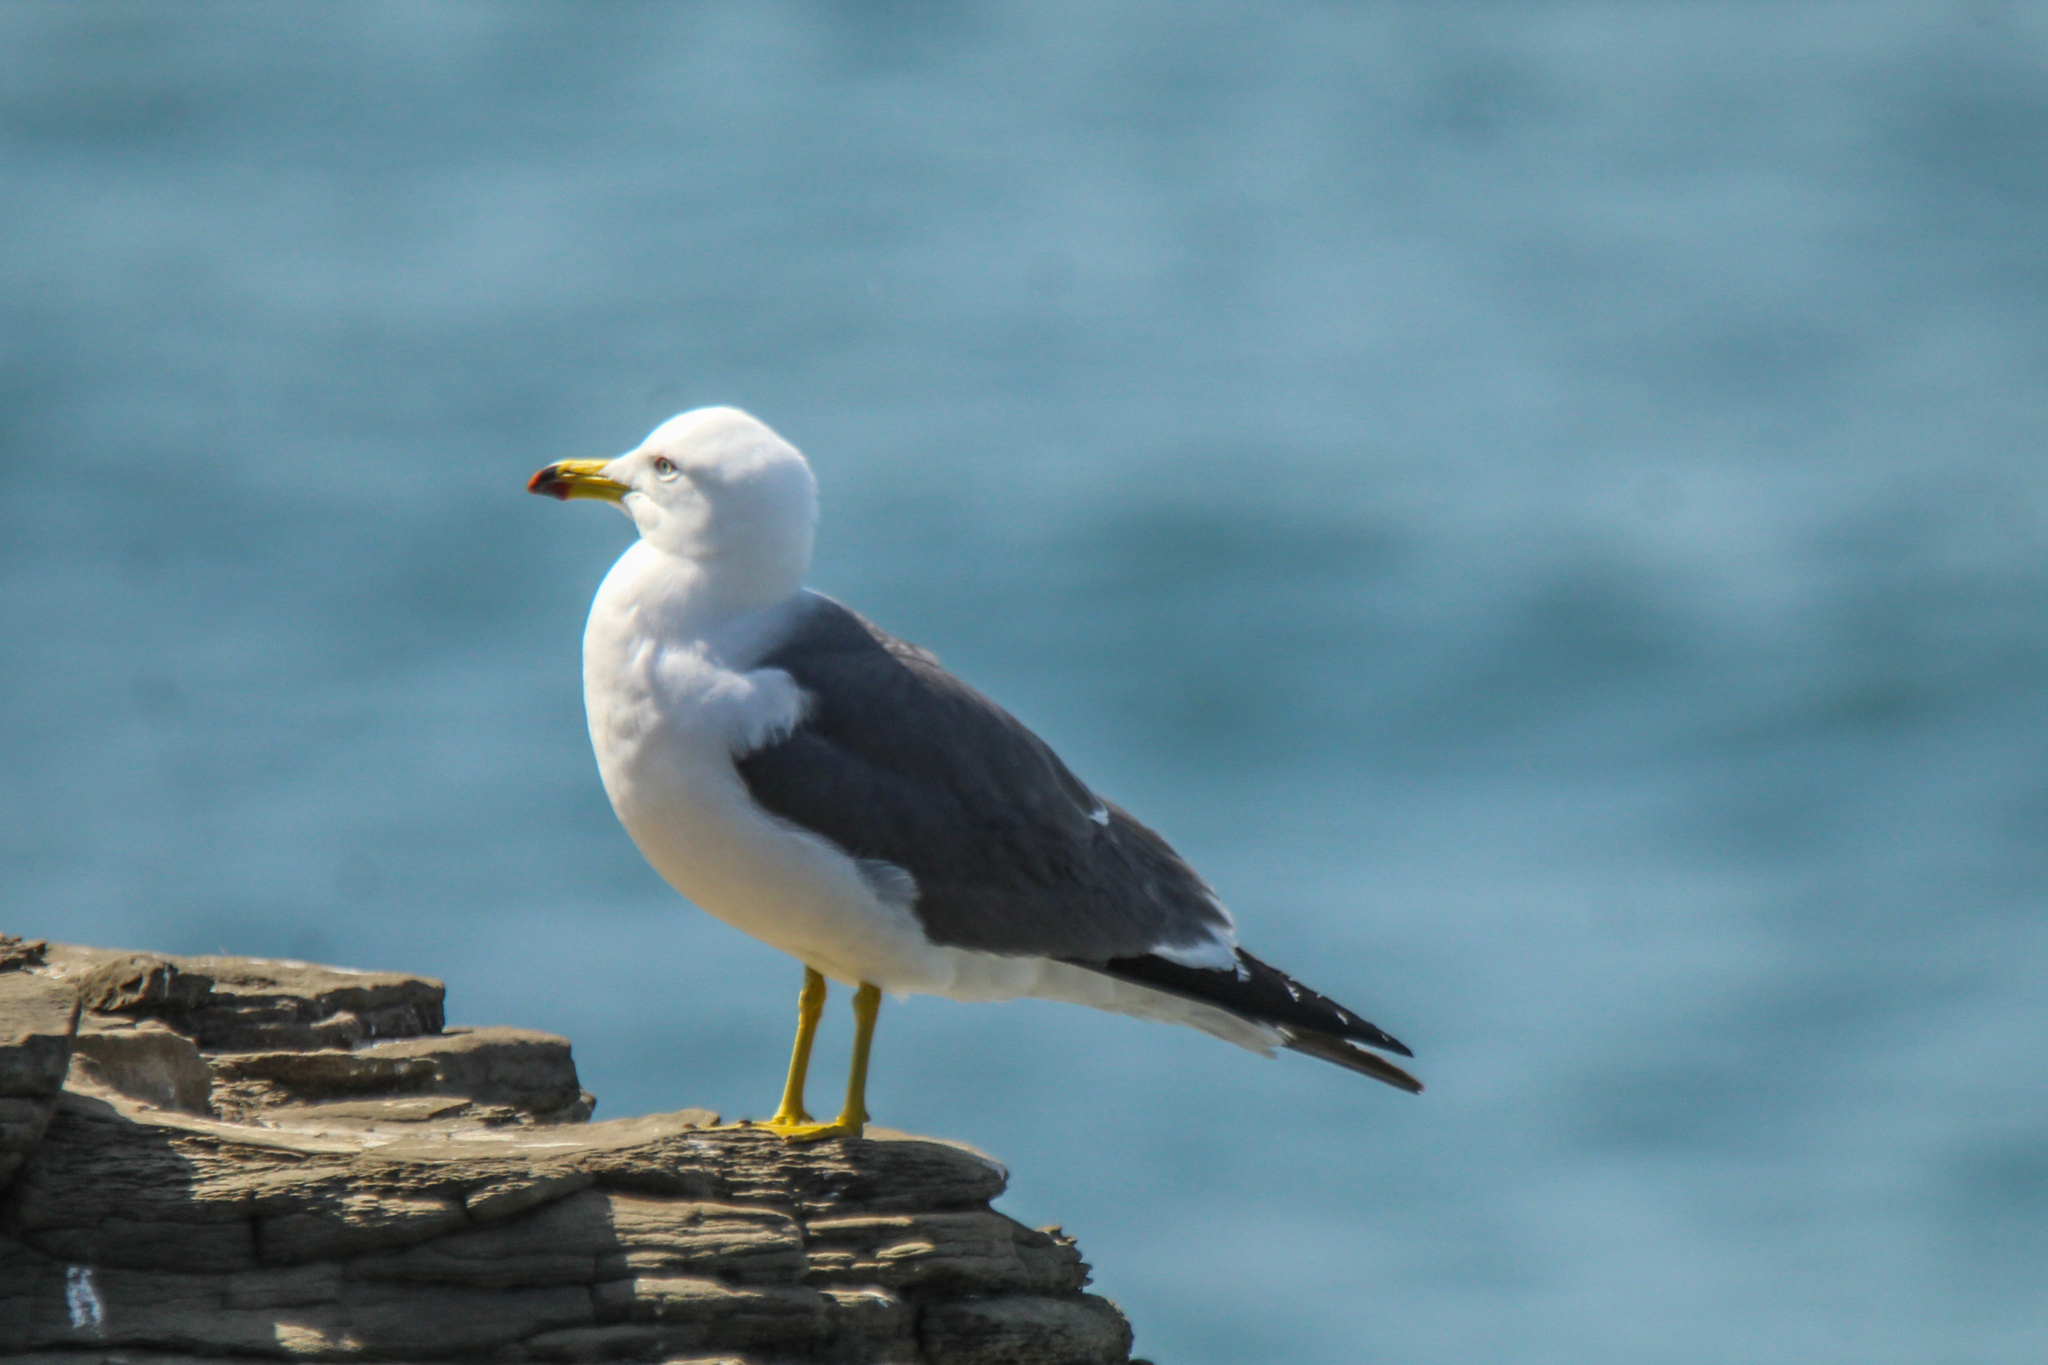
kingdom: Animalia
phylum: Chordata
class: Aves
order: Charadriiformes
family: Laridae
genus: Larus
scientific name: Larus crassirostris
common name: Black-tailed gull
